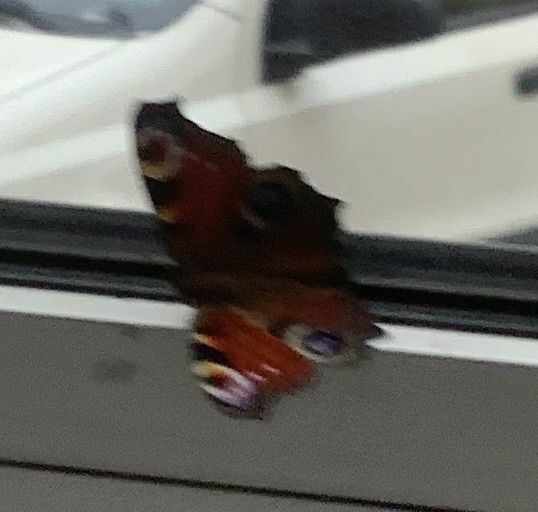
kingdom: Animalia
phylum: Arthropoda
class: Insecta
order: Lepidoptera
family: Nymphalidae
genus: Aglais
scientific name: Aglais io
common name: Peacock
